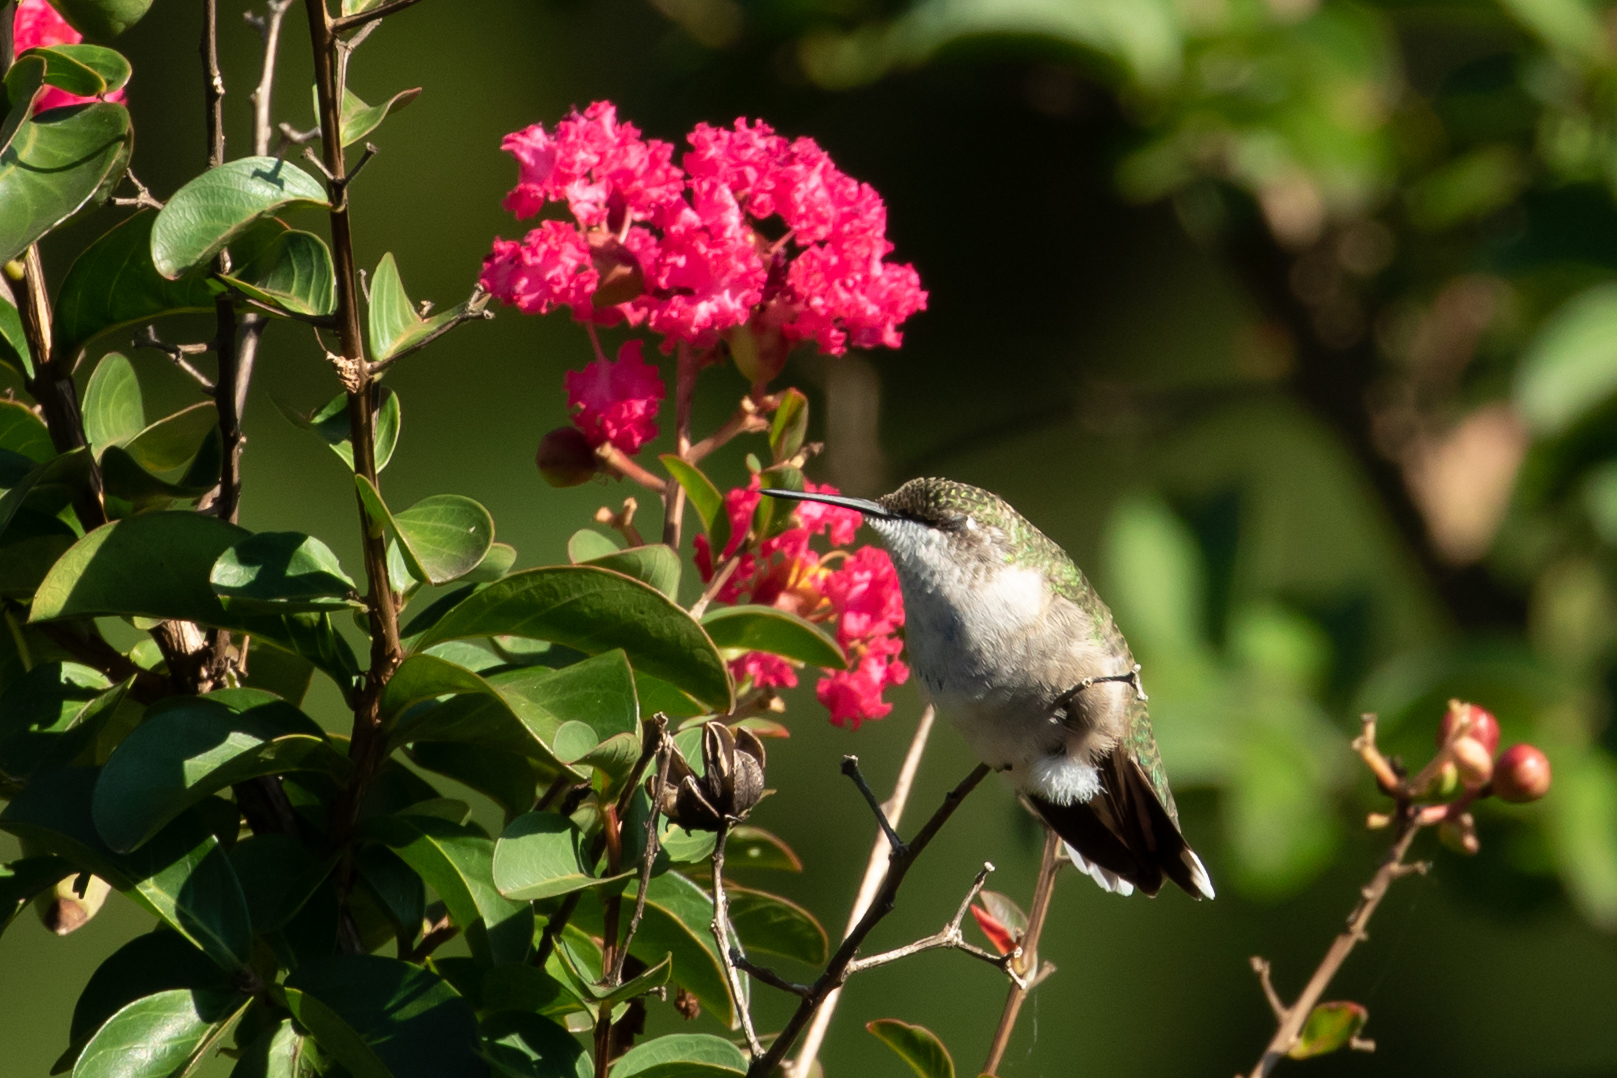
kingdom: Animalia
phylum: Chordata
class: Aves
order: Apodiformes
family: Trochilidae
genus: Archilochus
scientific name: Archilochus colubris
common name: Ruby-throated hummingbird
